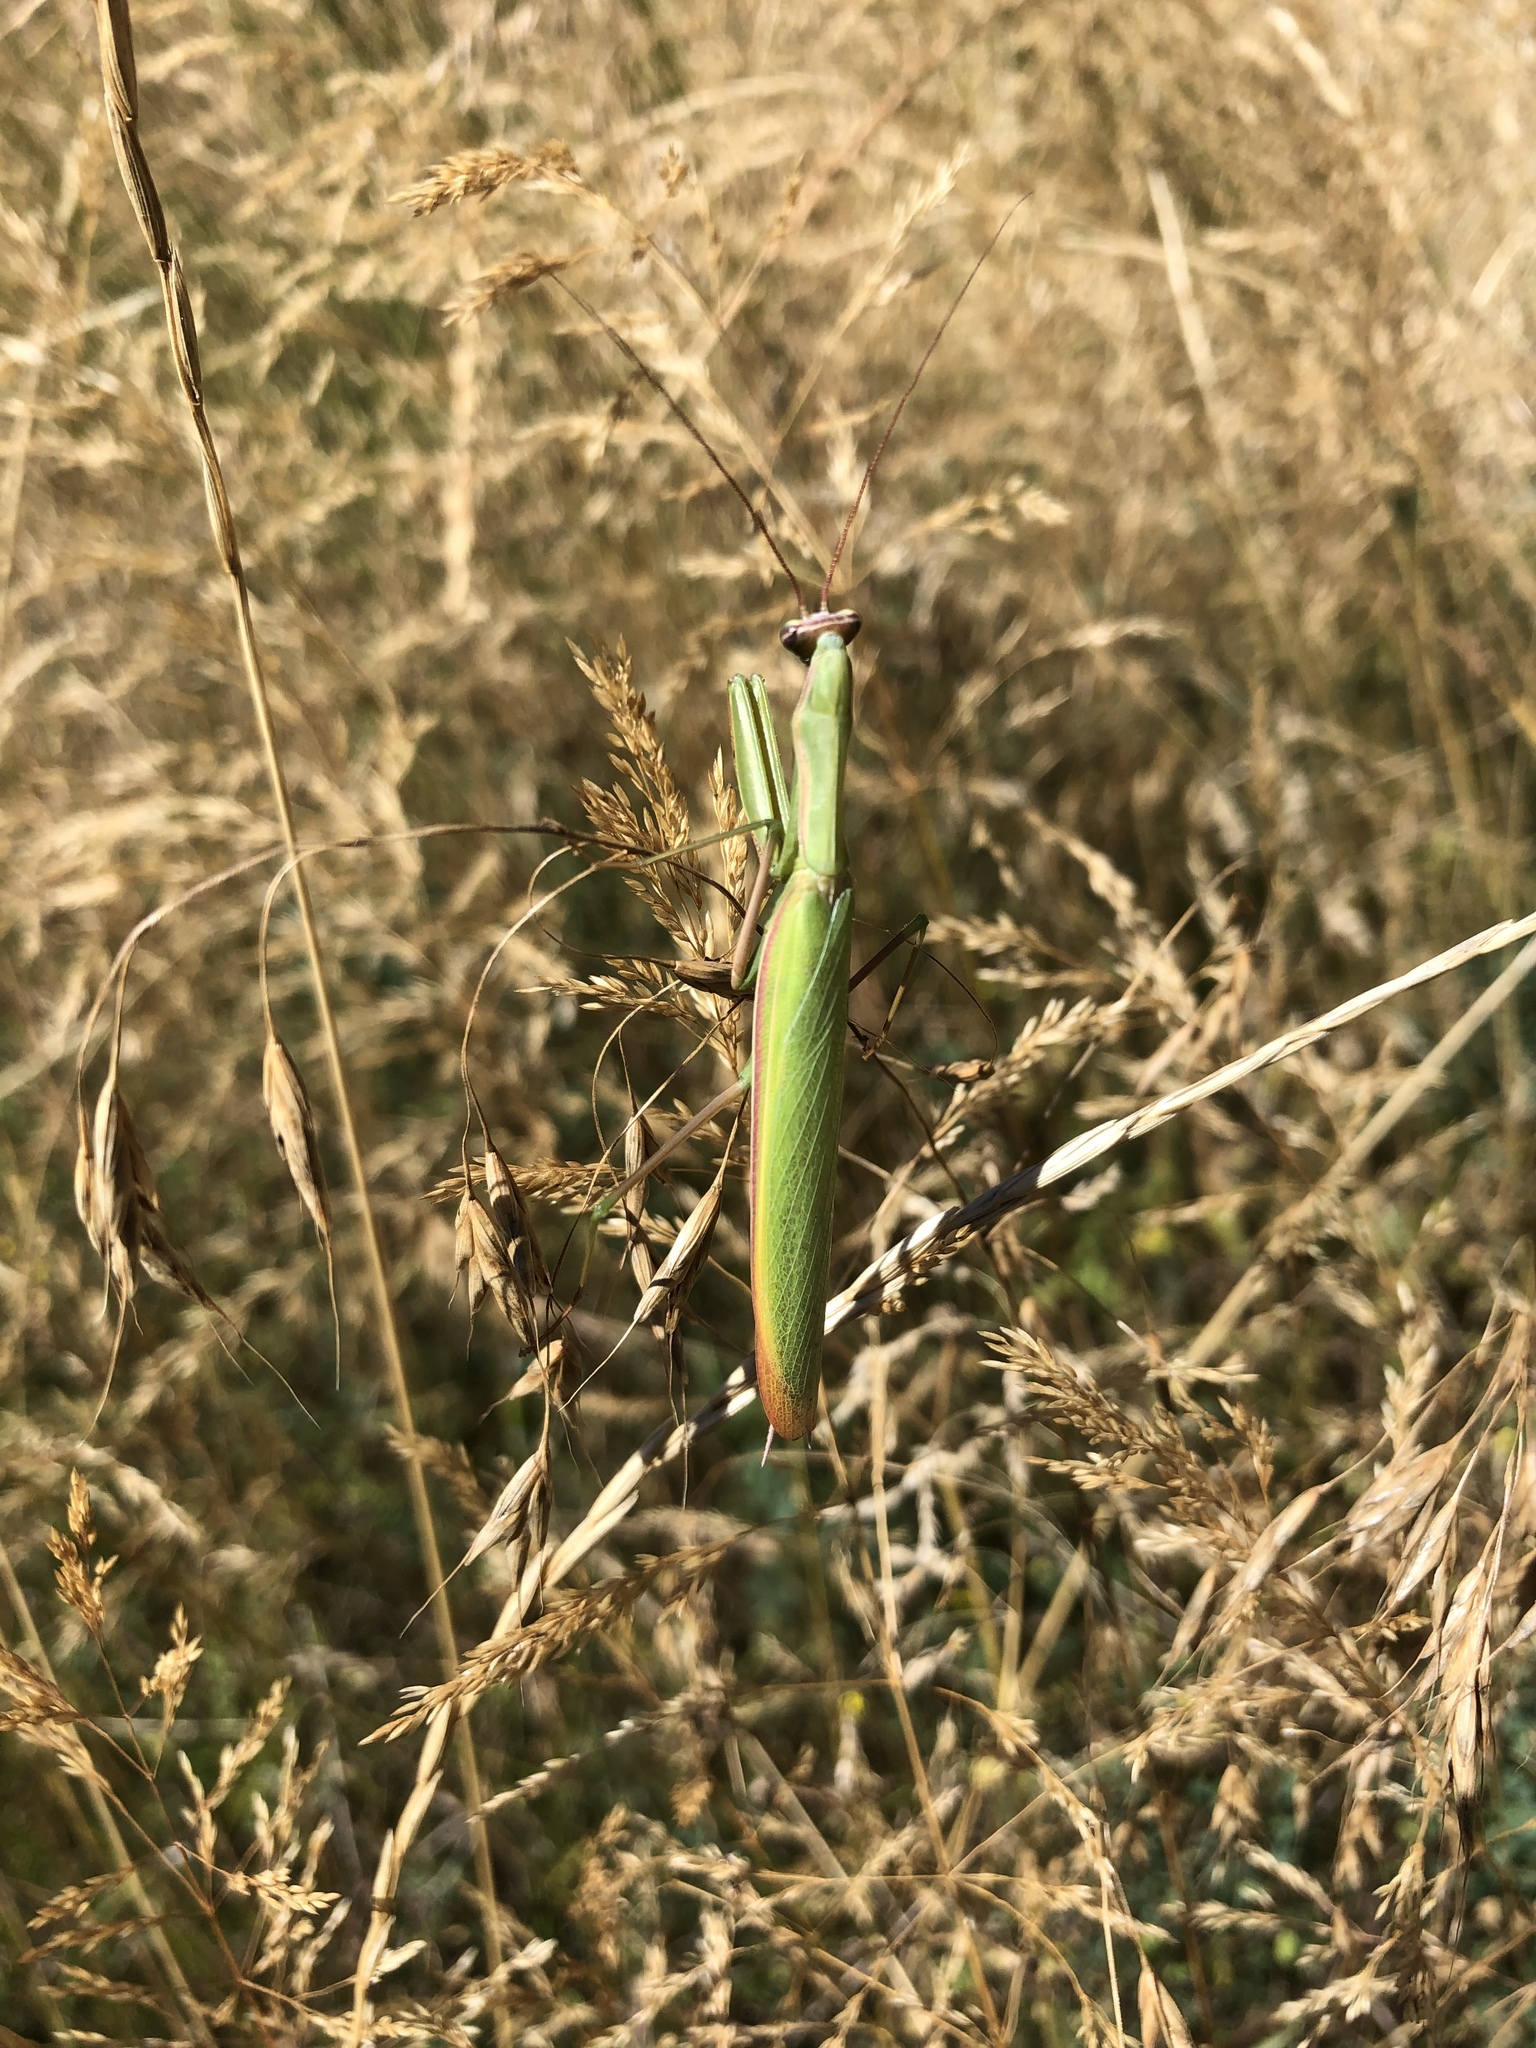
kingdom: Animalia
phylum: Arthropoda
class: Insecta
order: Mantodea
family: Mantidae
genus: Mantis
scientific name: Mantis religiosa
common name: Praying mantis
